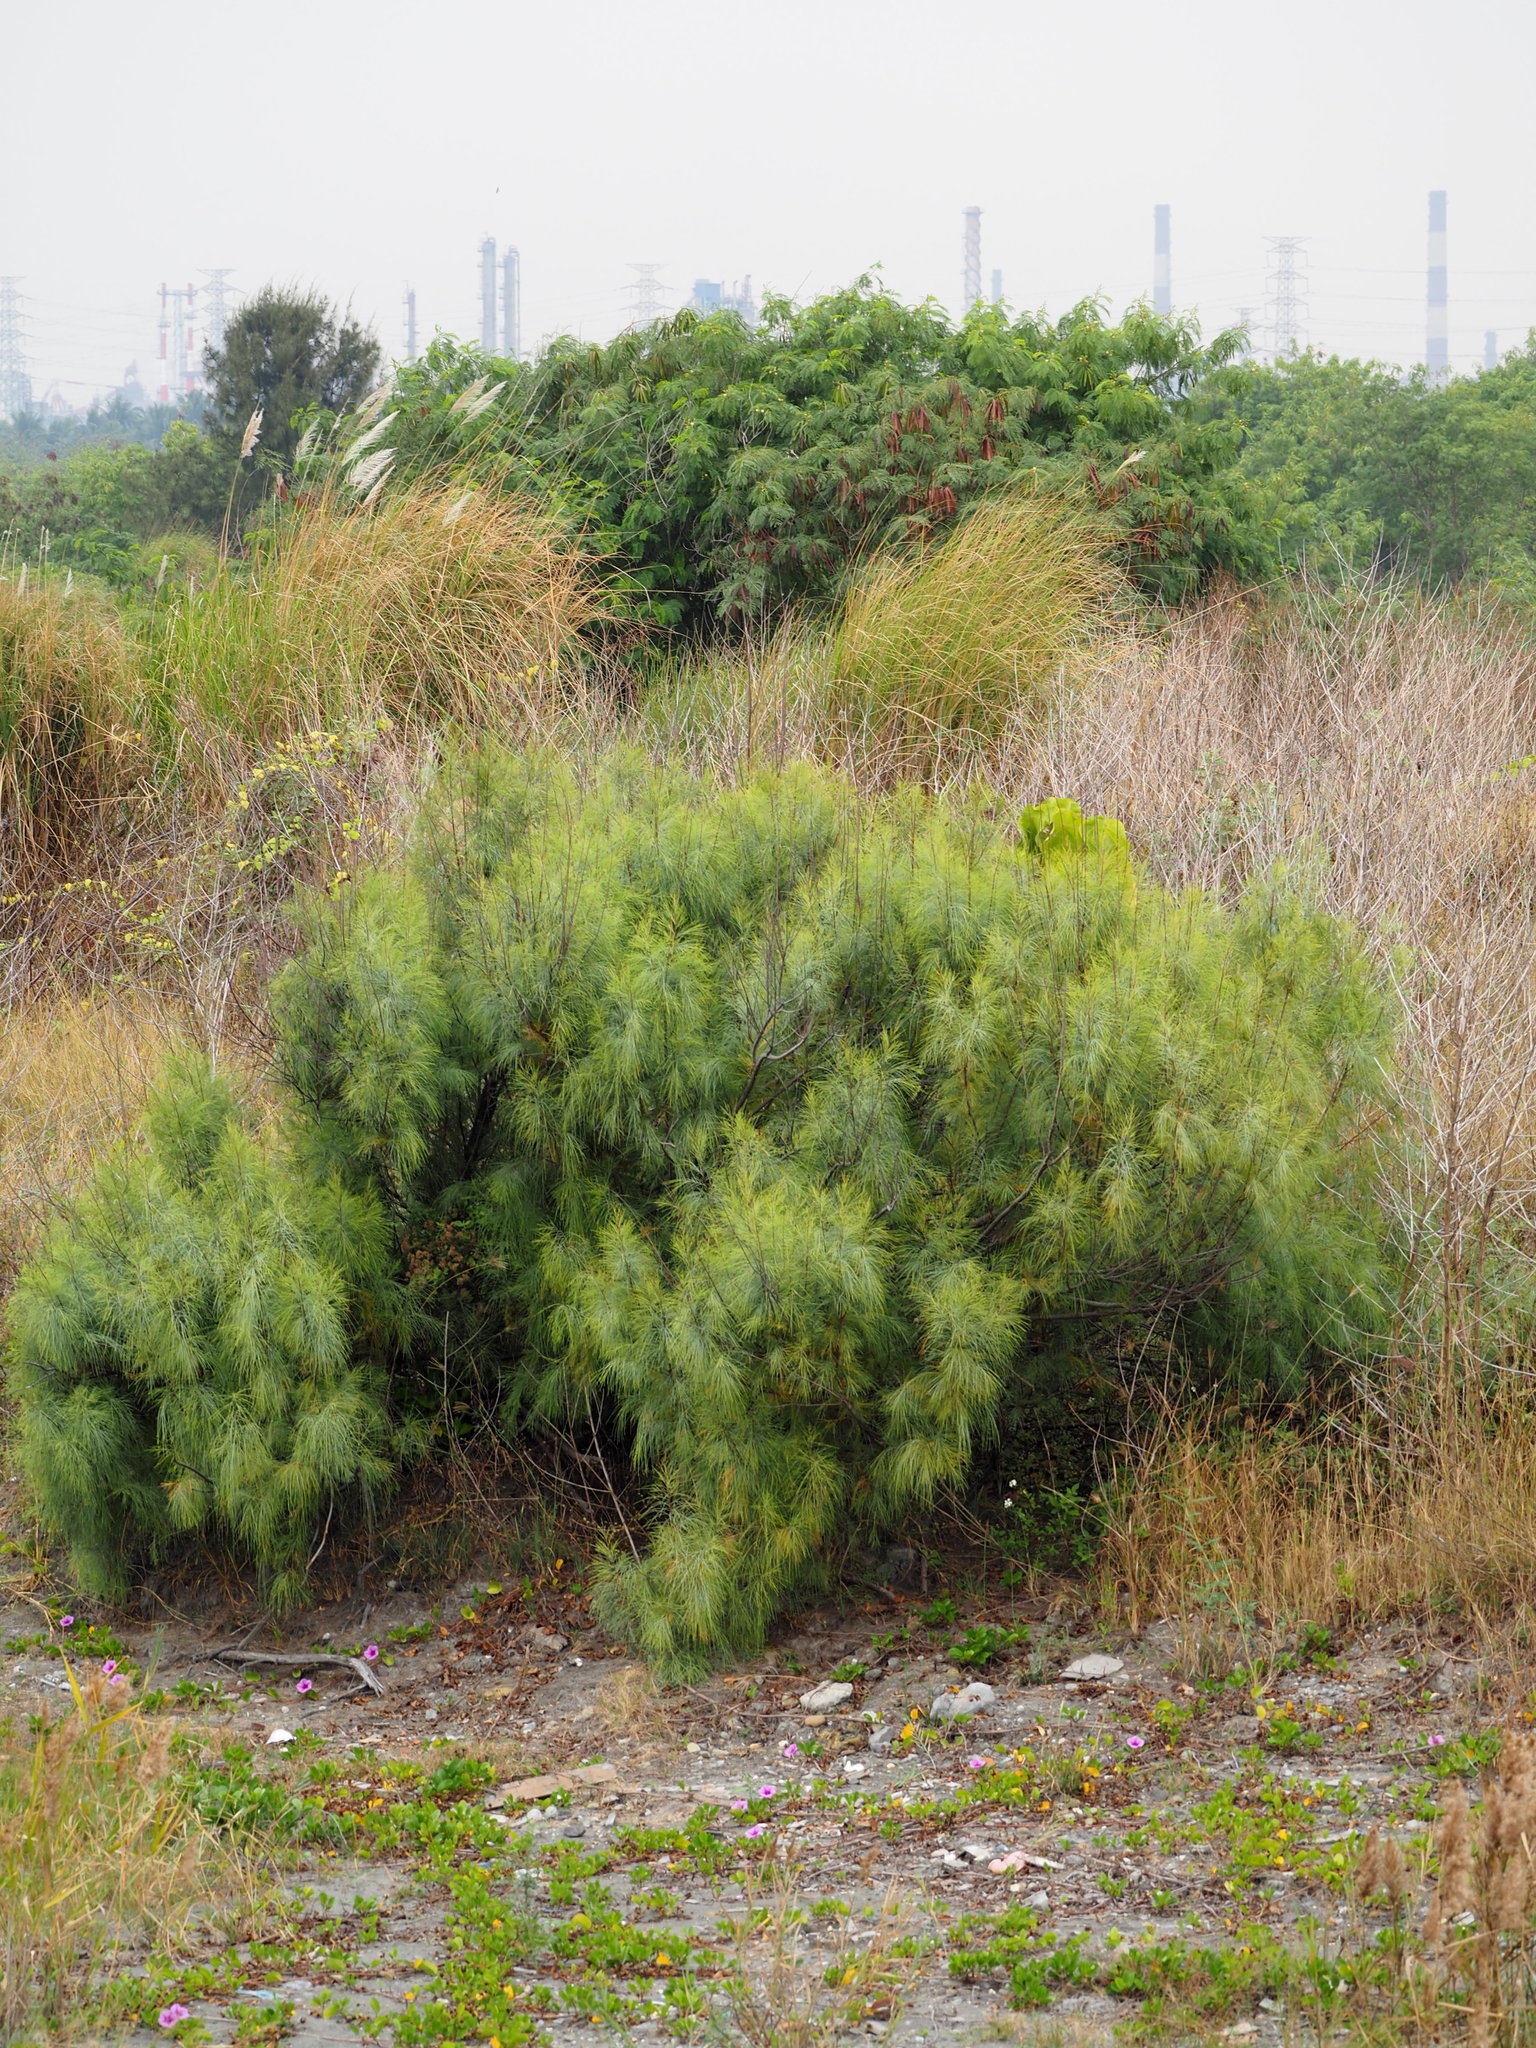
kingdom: Plantae
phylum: Tracheophyta
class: Magnoliopsida
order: Caryophyllales
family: Tamaricaceae
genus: Tamarix
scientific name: Tamarix aphylla
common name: Athel tamarisk
